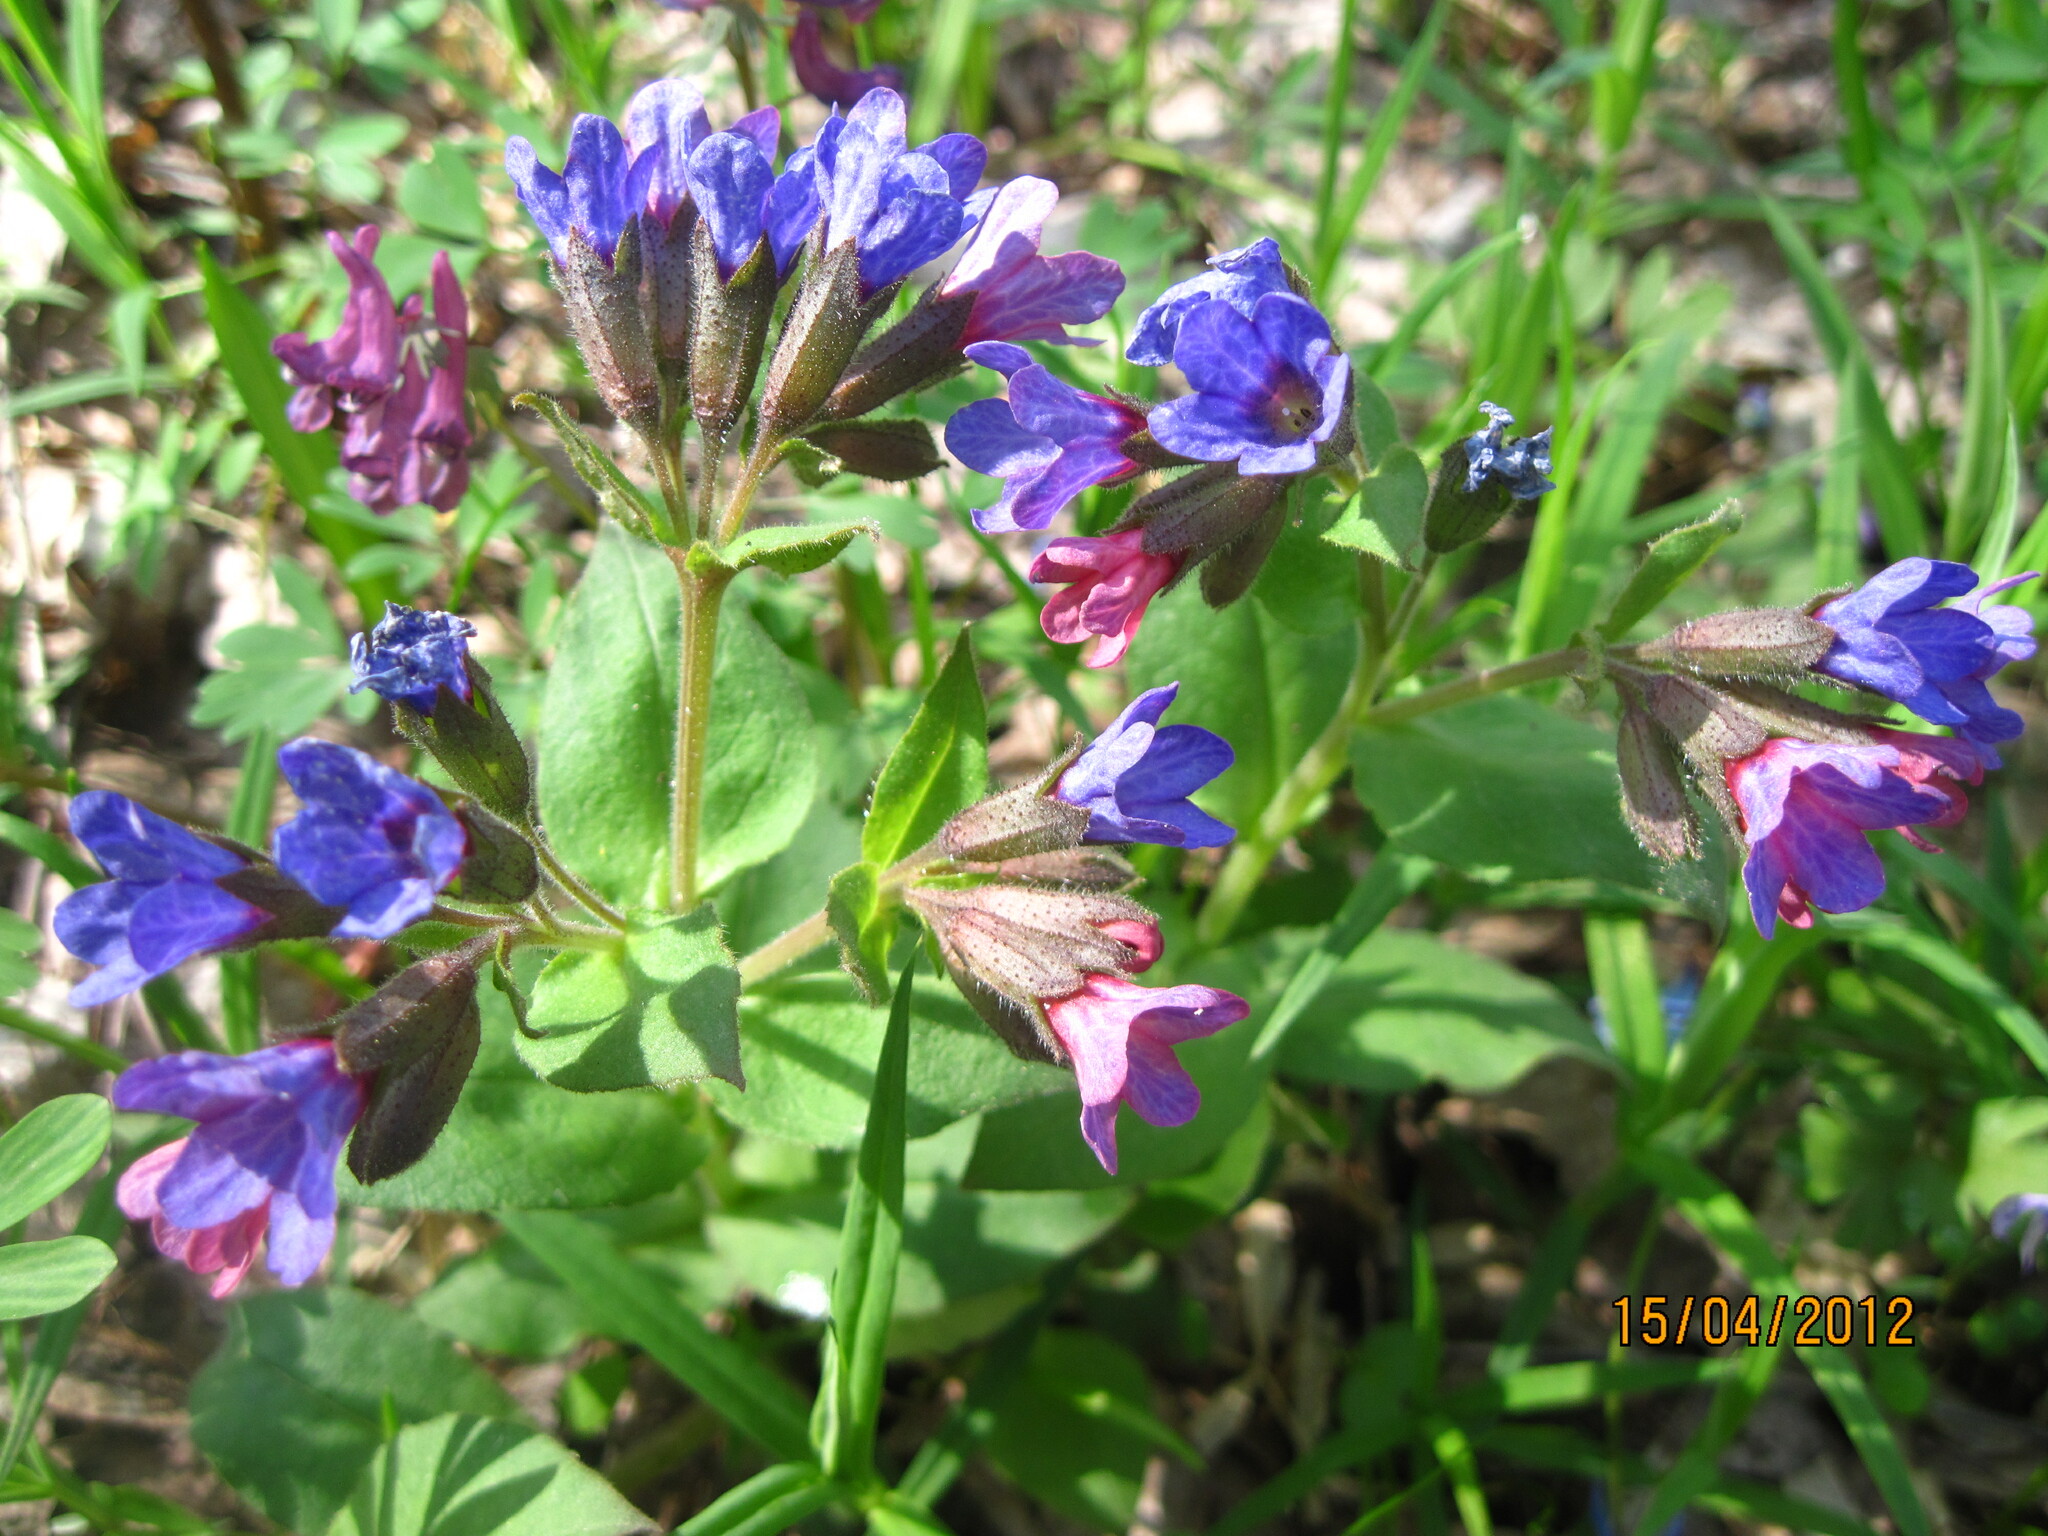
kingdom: Plantae
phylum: Tracheophyta
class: Magnoliopsida
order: Boraginales
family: Boraginaceae
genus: Pulmonaria
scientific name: Pulmonaria obscura
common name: Suffolk lungwort
